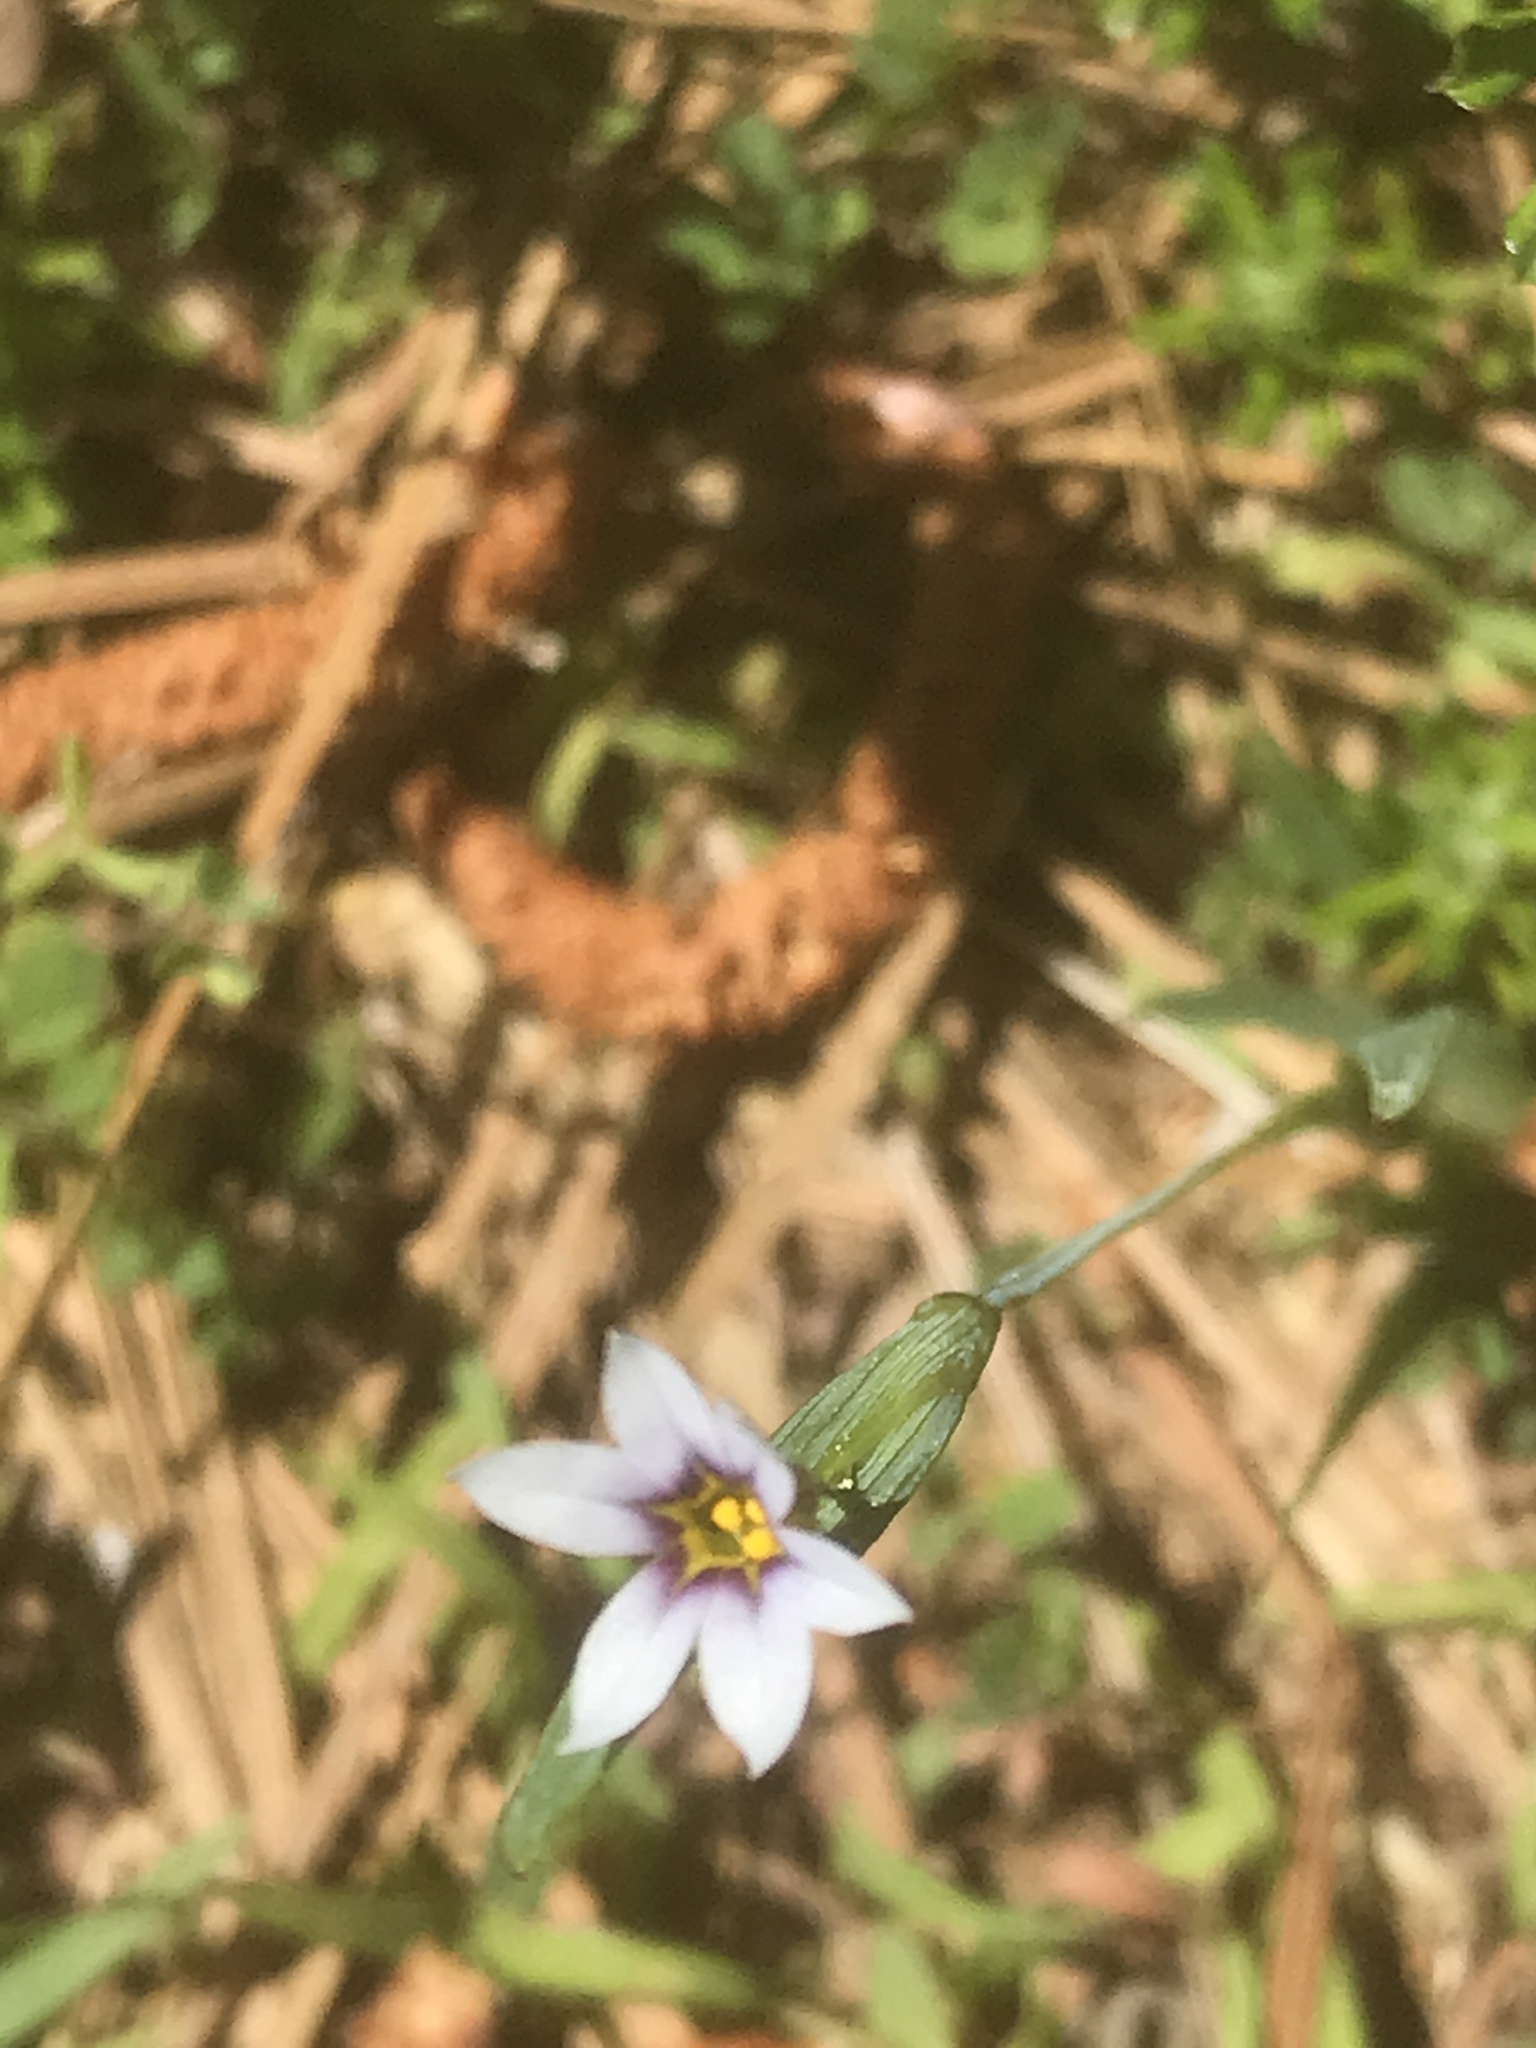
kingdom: Plantae
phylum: Tracheophyta
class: Liliopsida
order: Asparagales
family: Iridaceae
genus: Sisyrinchium
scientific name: Sisyrinchium micranthum
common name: Bermuda pigroot
